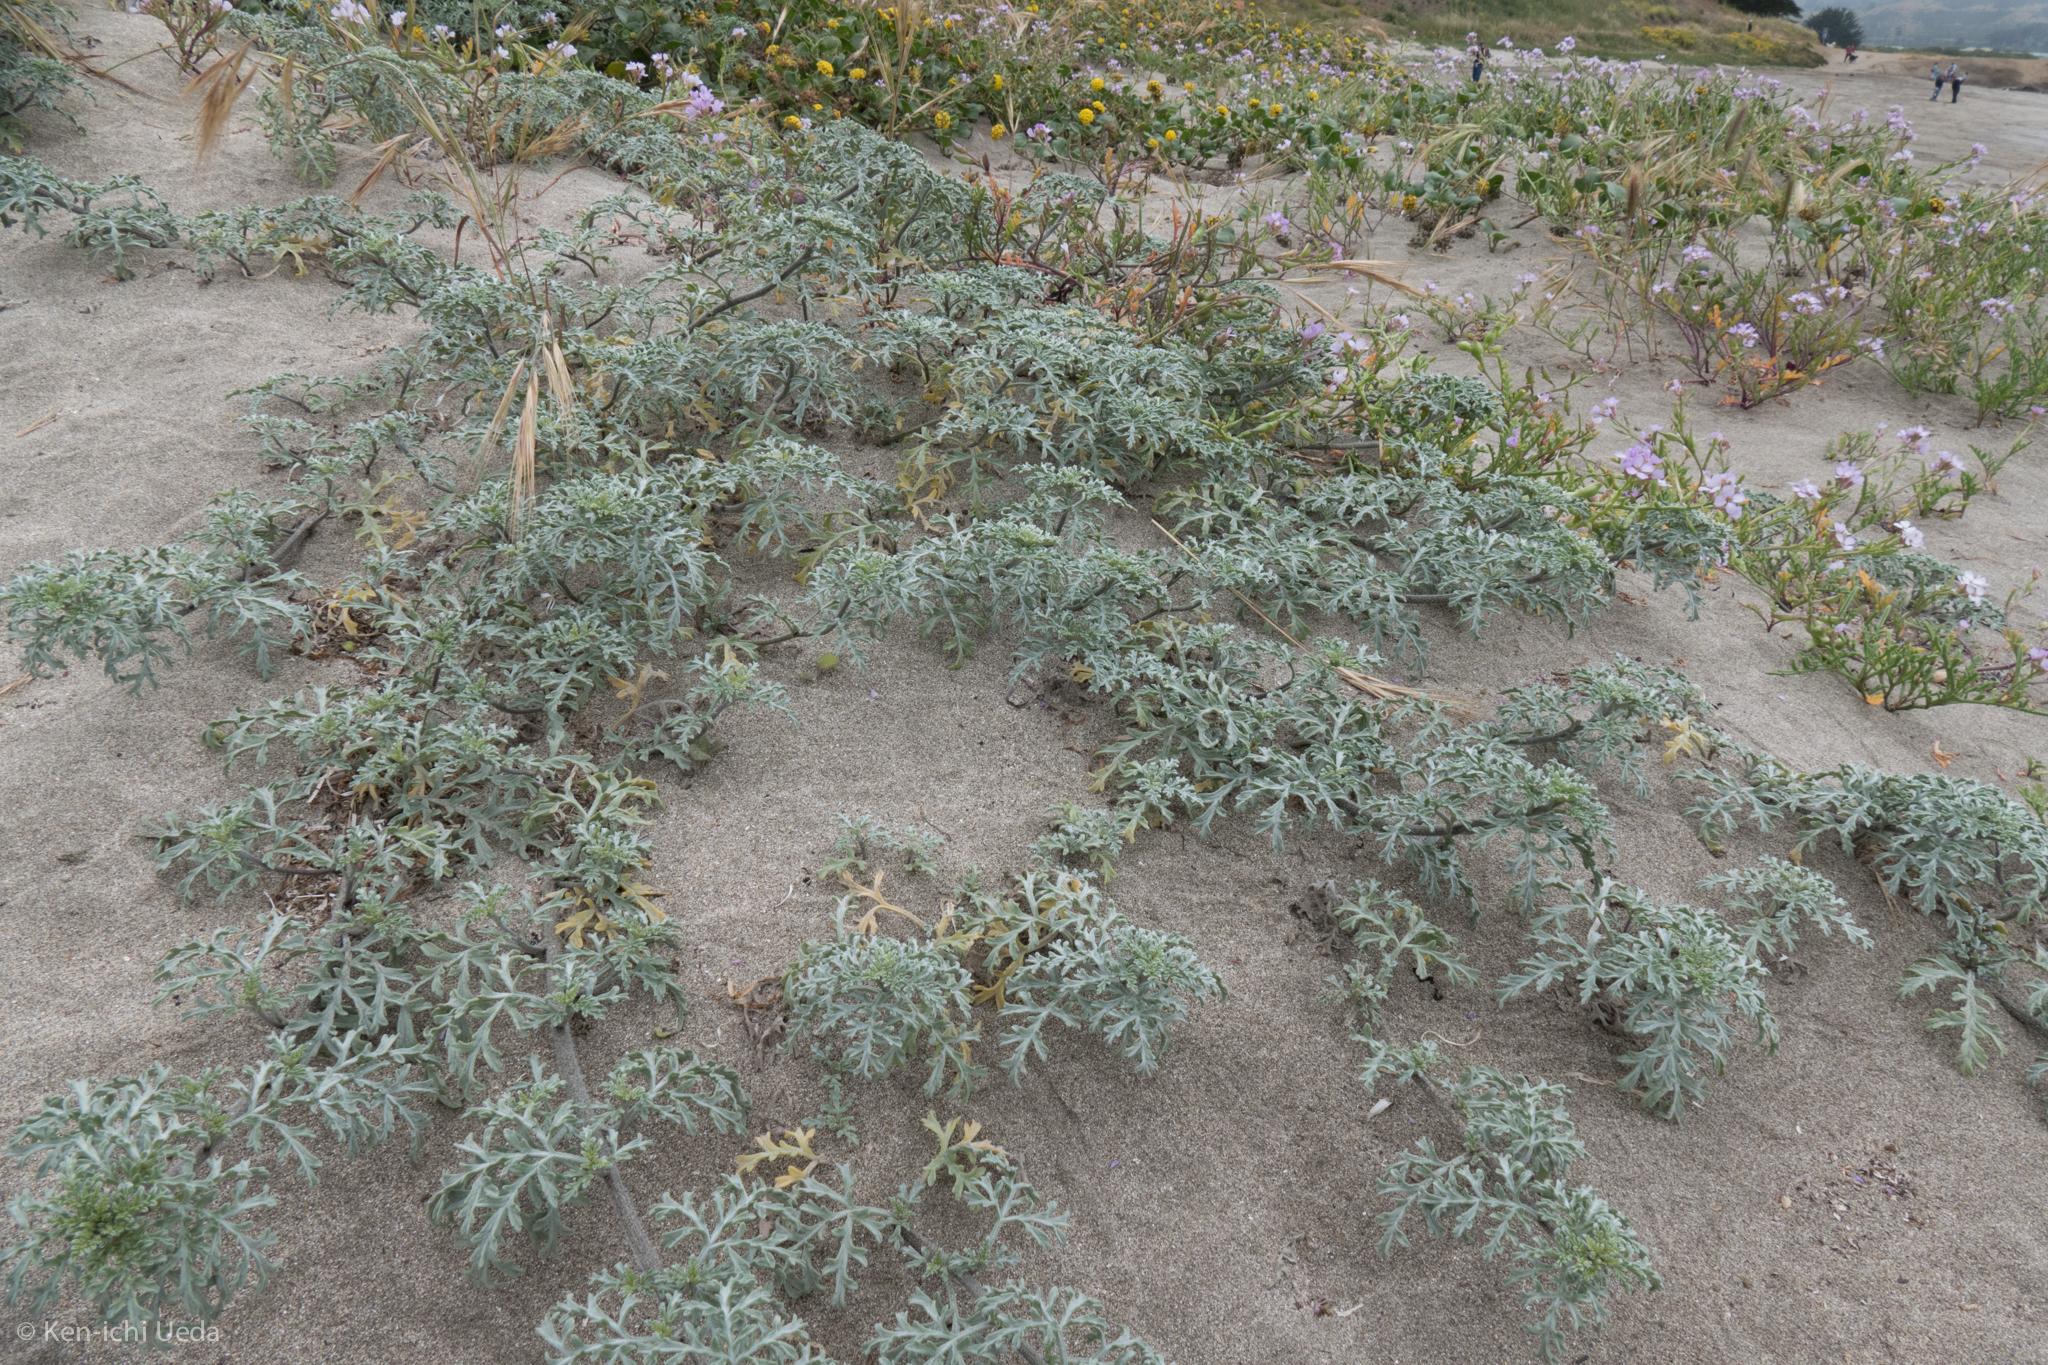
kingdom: Plantae
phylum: Tracheophyta
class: Magnoliopsida
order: Asterales
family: Asteraceae
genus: Ambrosia
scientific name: Ambrosia chamissonis
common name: Beachbur
